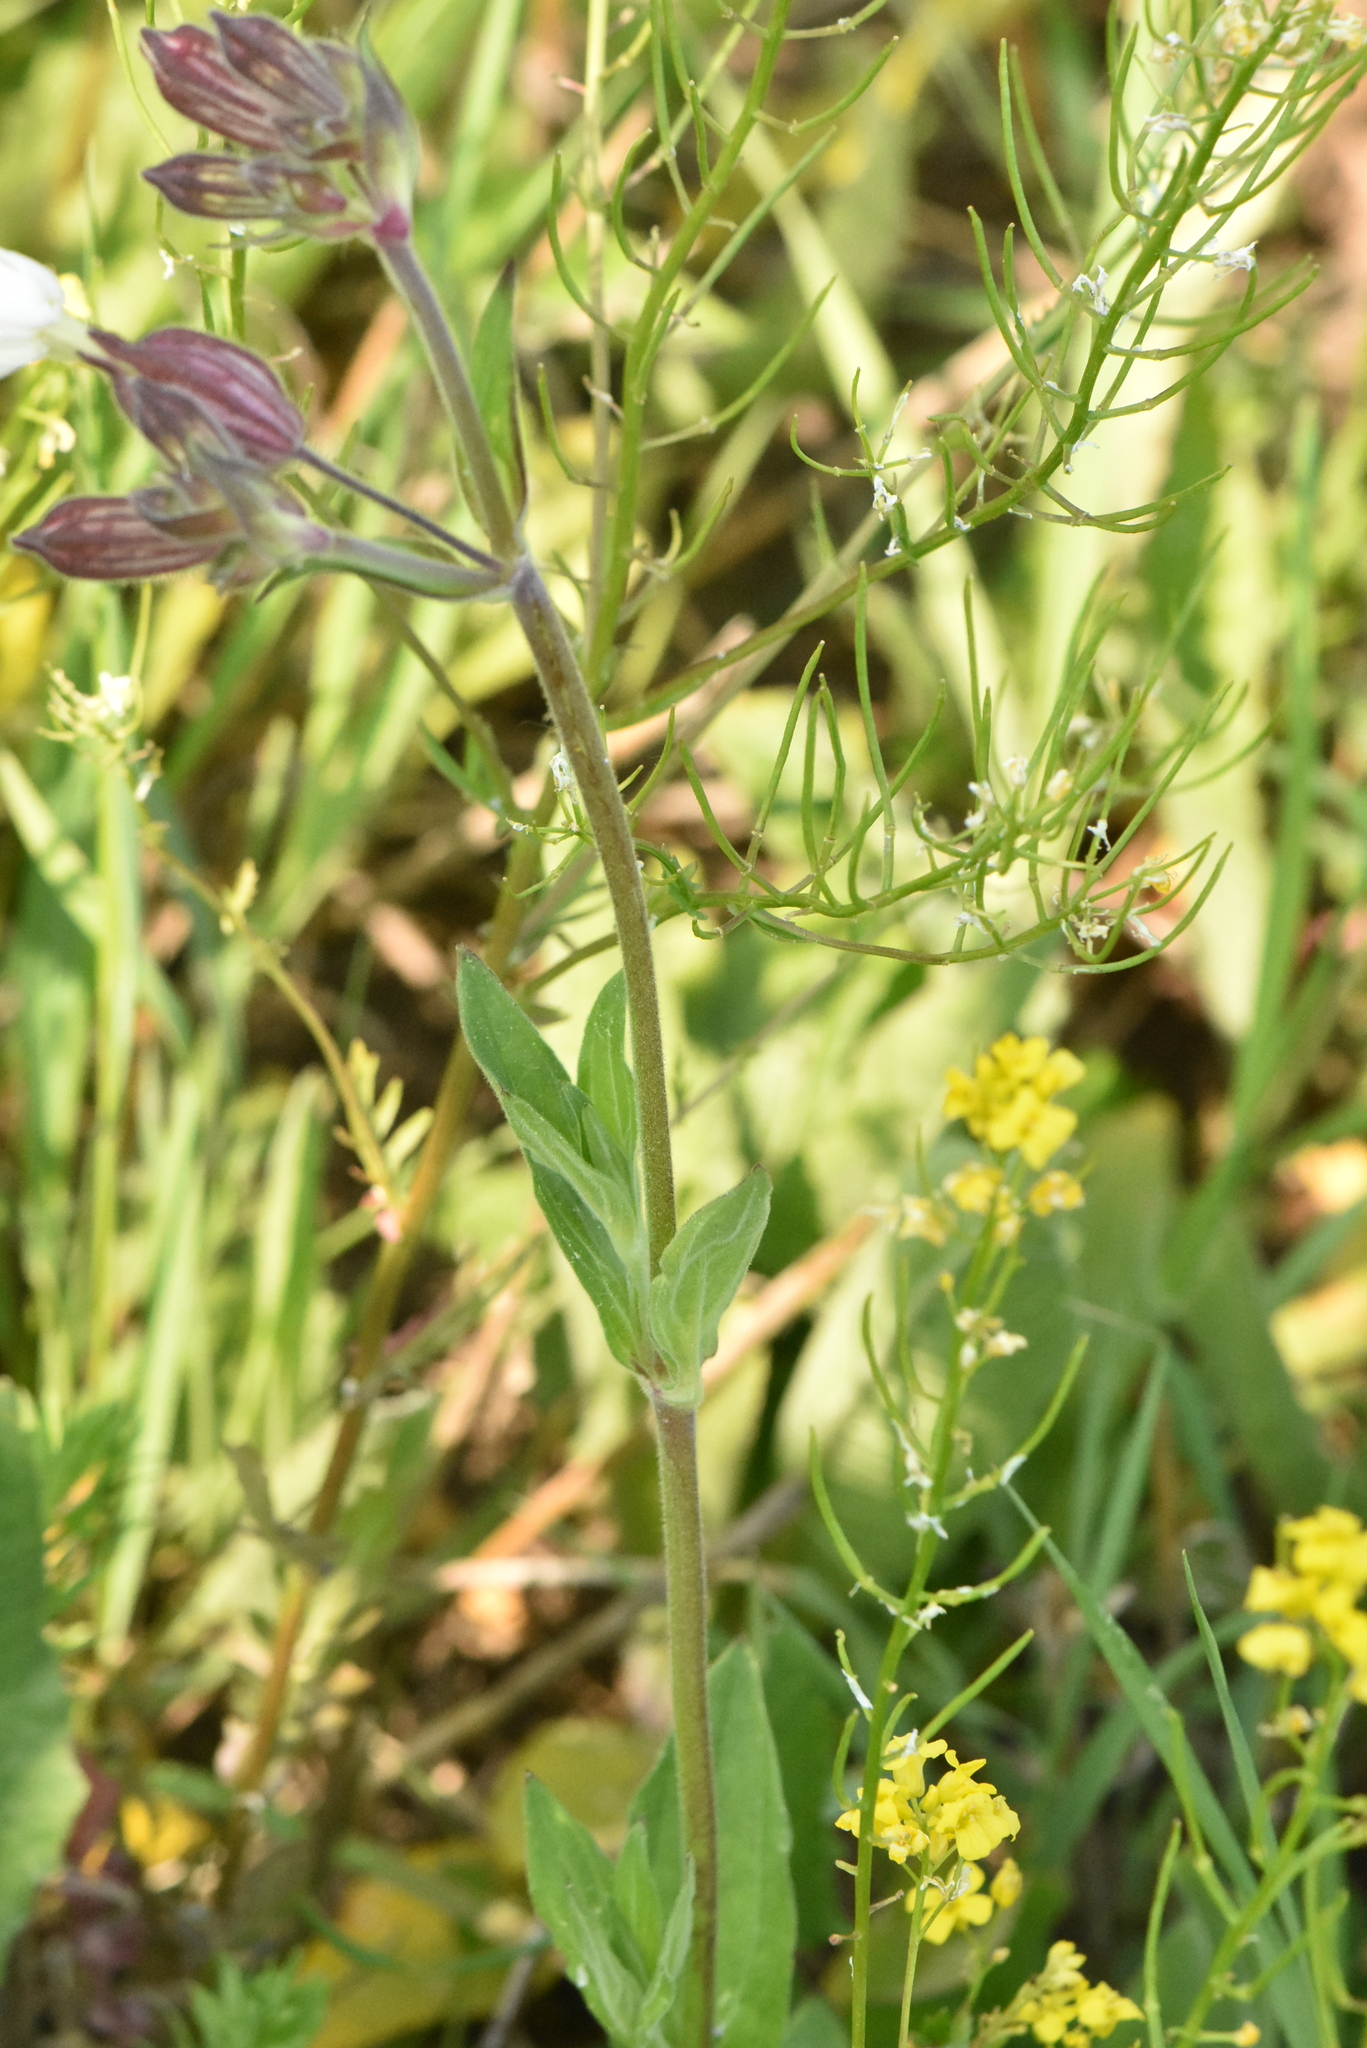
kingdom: Plantae
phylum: Tracheophyta
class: Magnoliopsida
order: Caryophyllales
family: Caryophyllaceae
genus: Silene
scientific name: Silene dioica
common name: Red campion
